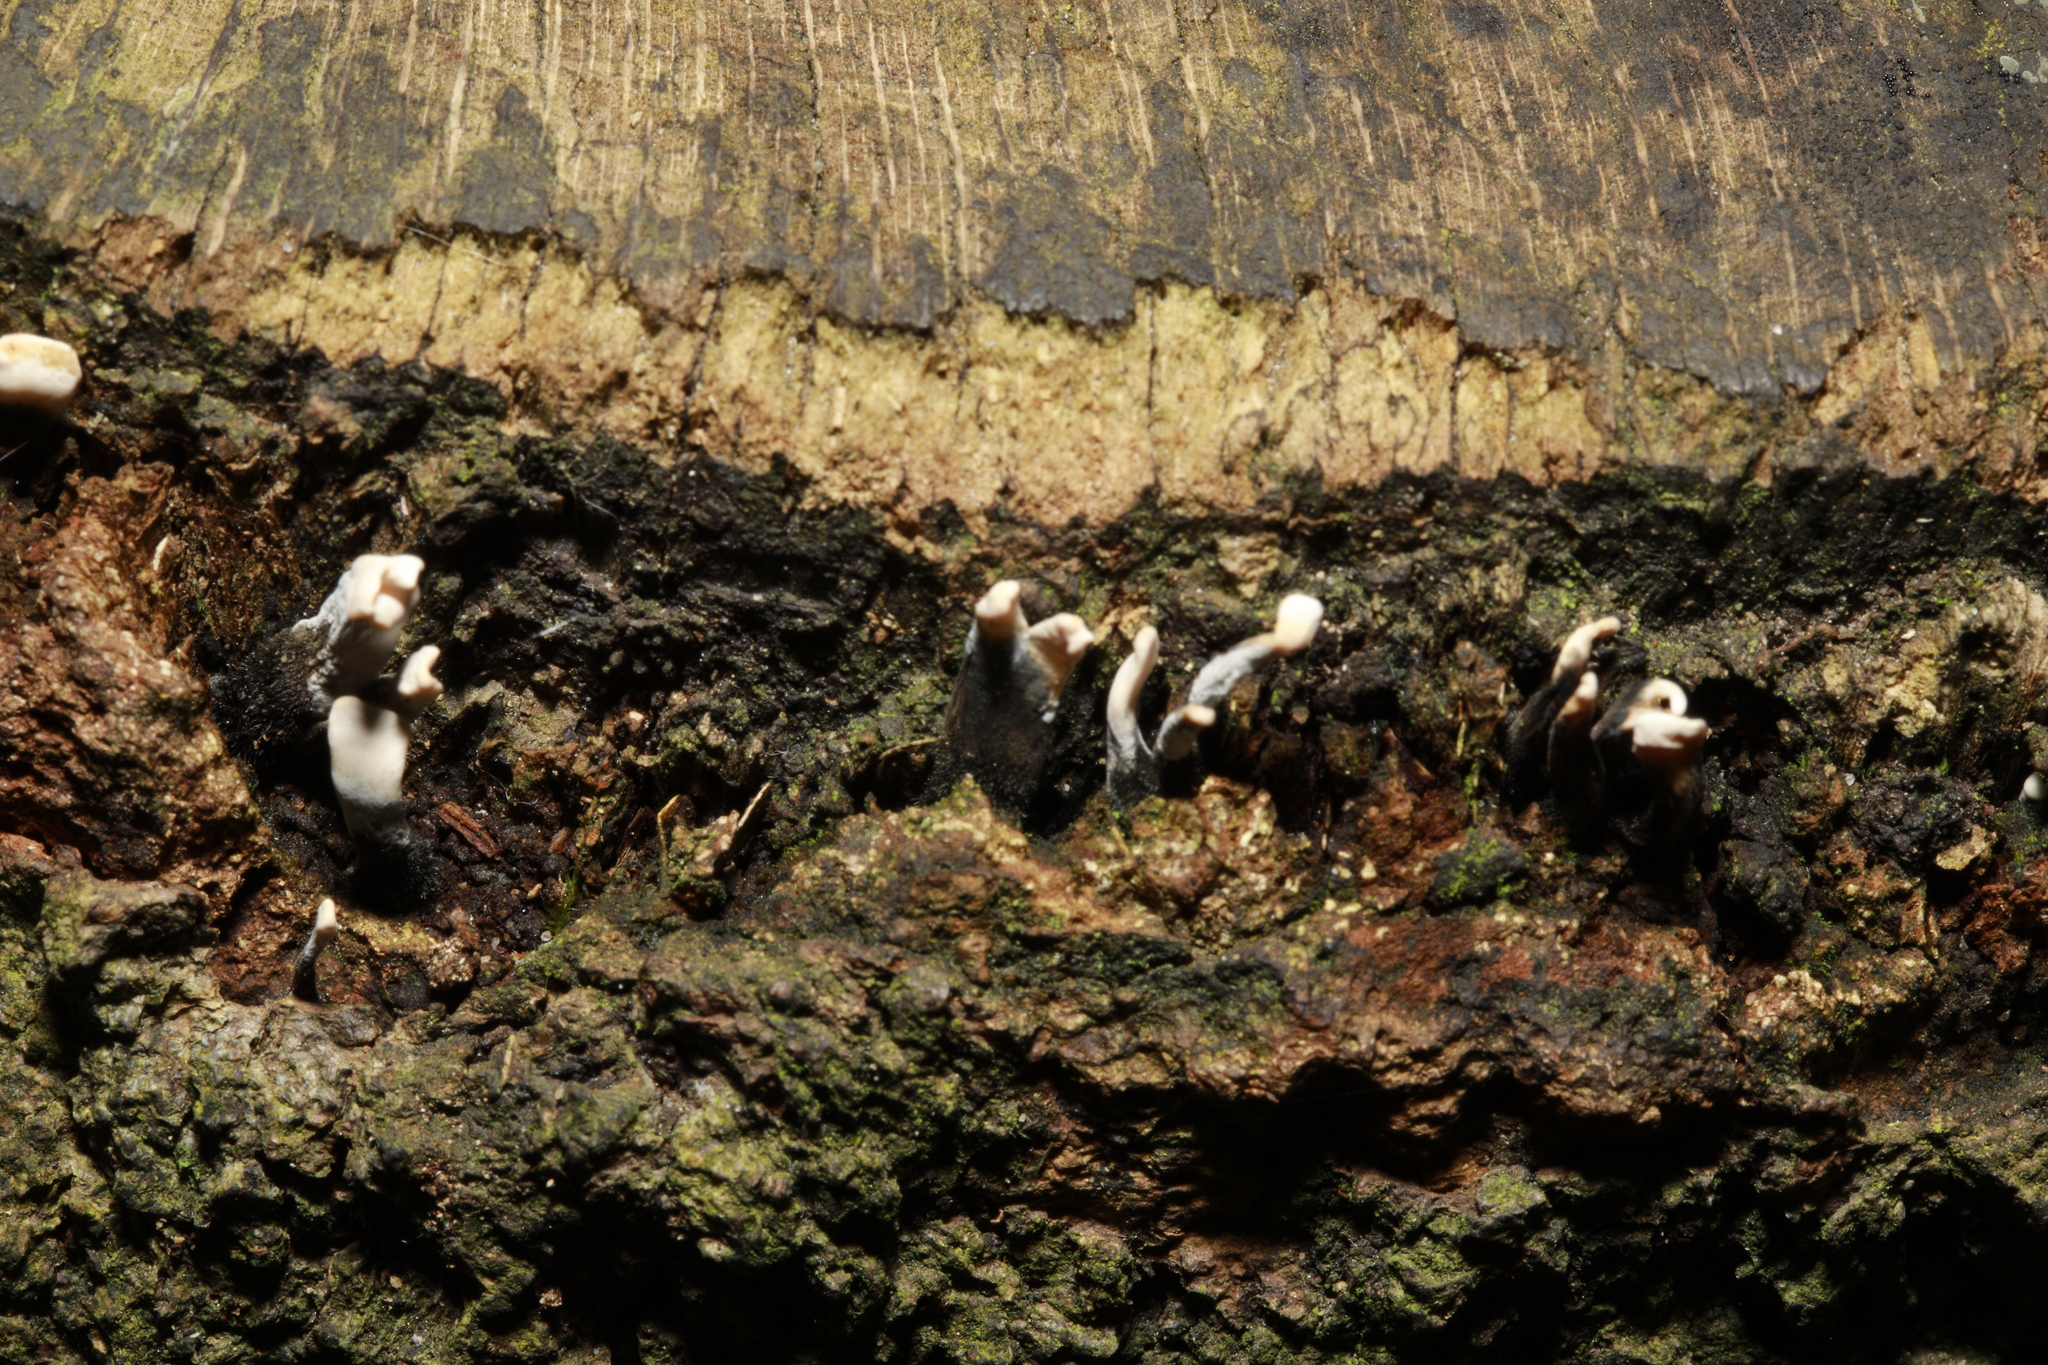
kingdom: Fungi
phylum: Ascomycota
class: Sordariomycetes
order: Xylariales
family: Xylariaceae
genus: Xylaria
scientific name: Xylaria hypoxylon
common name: Candle-snuff fungus
